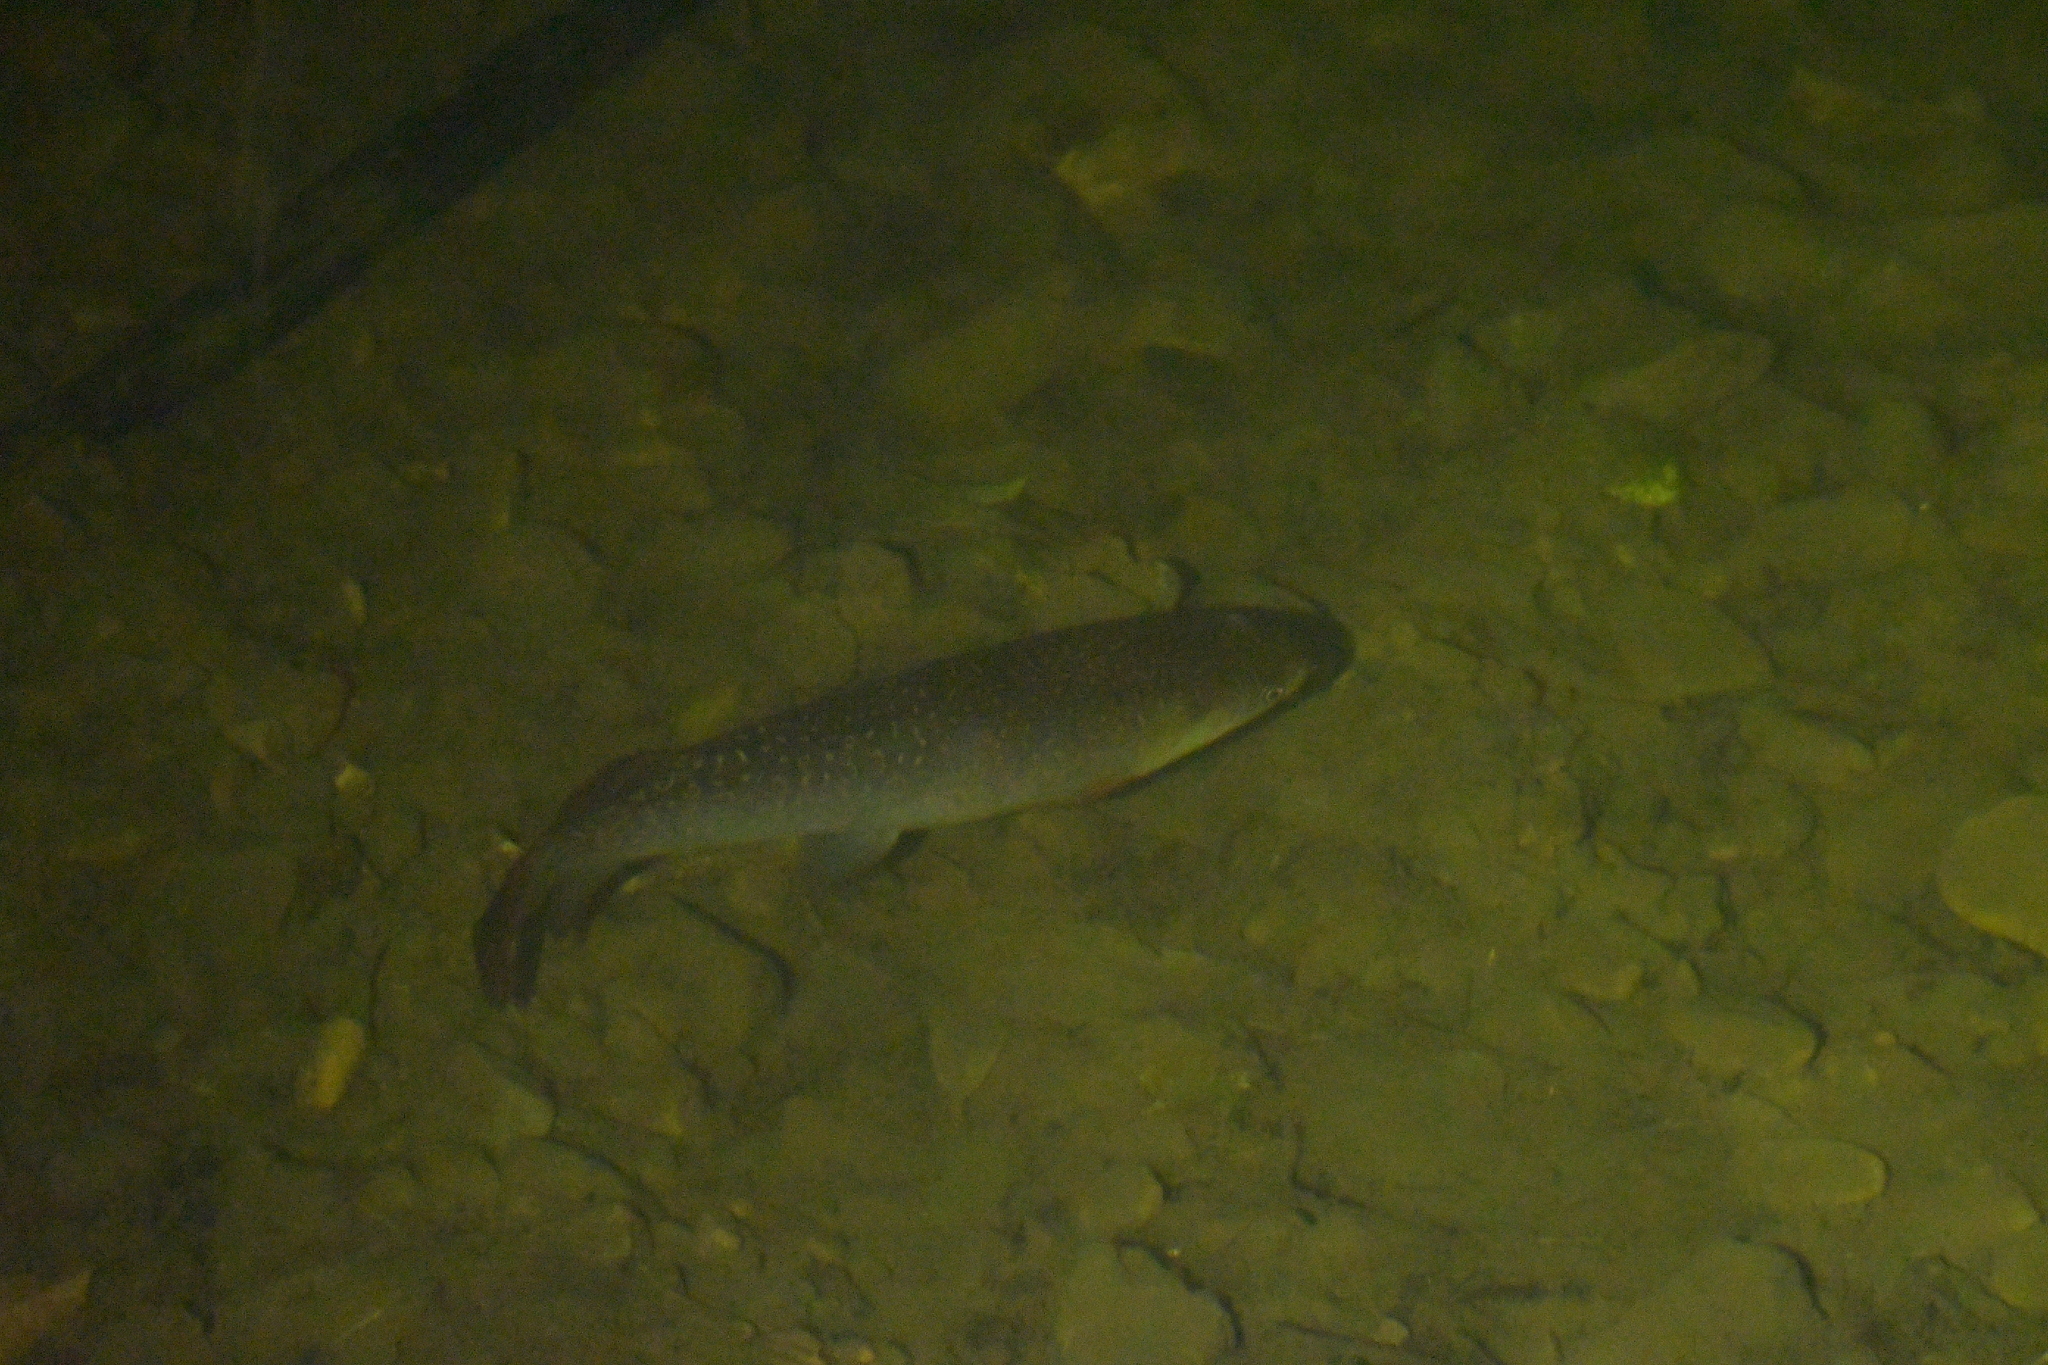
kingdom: Animalia
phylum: Chordata
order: Osmeriformes
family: Galaxiidae
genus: Galaxias
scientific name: Galaxias argenteus
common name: Giant kokopu
